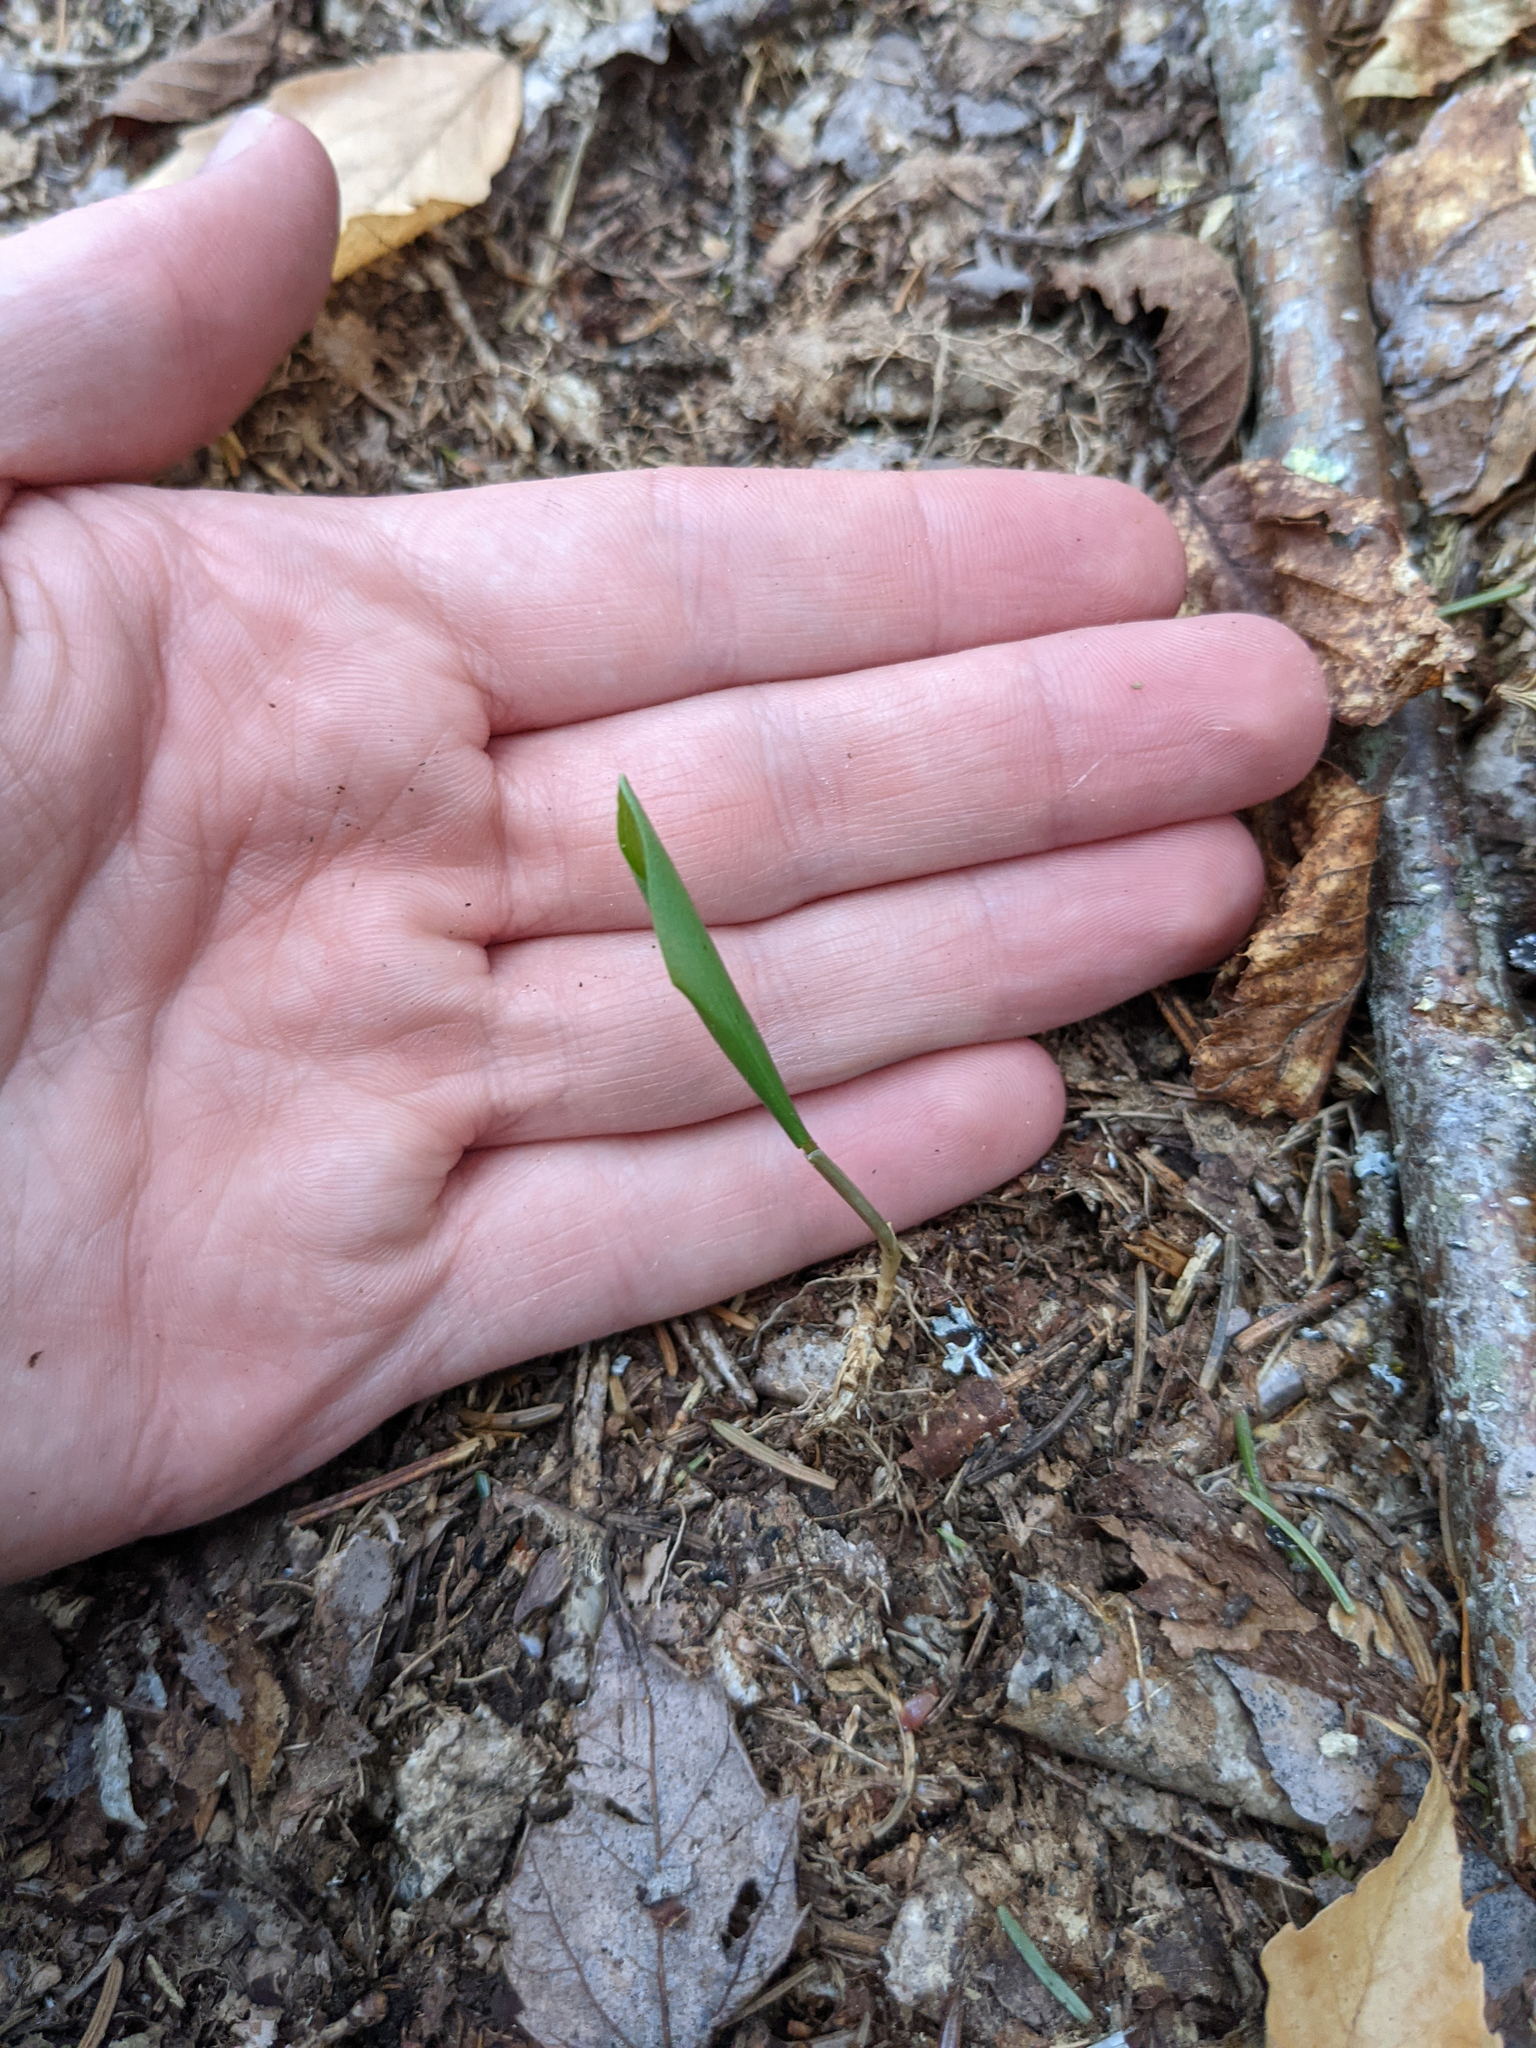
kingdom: Plantae
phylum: Tracheophyta
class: Liliopsida
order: Asparagales
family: Asparagaceae
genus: Maianthemum
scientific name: Maianthemum canadense
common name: False lily-of-the-valley
